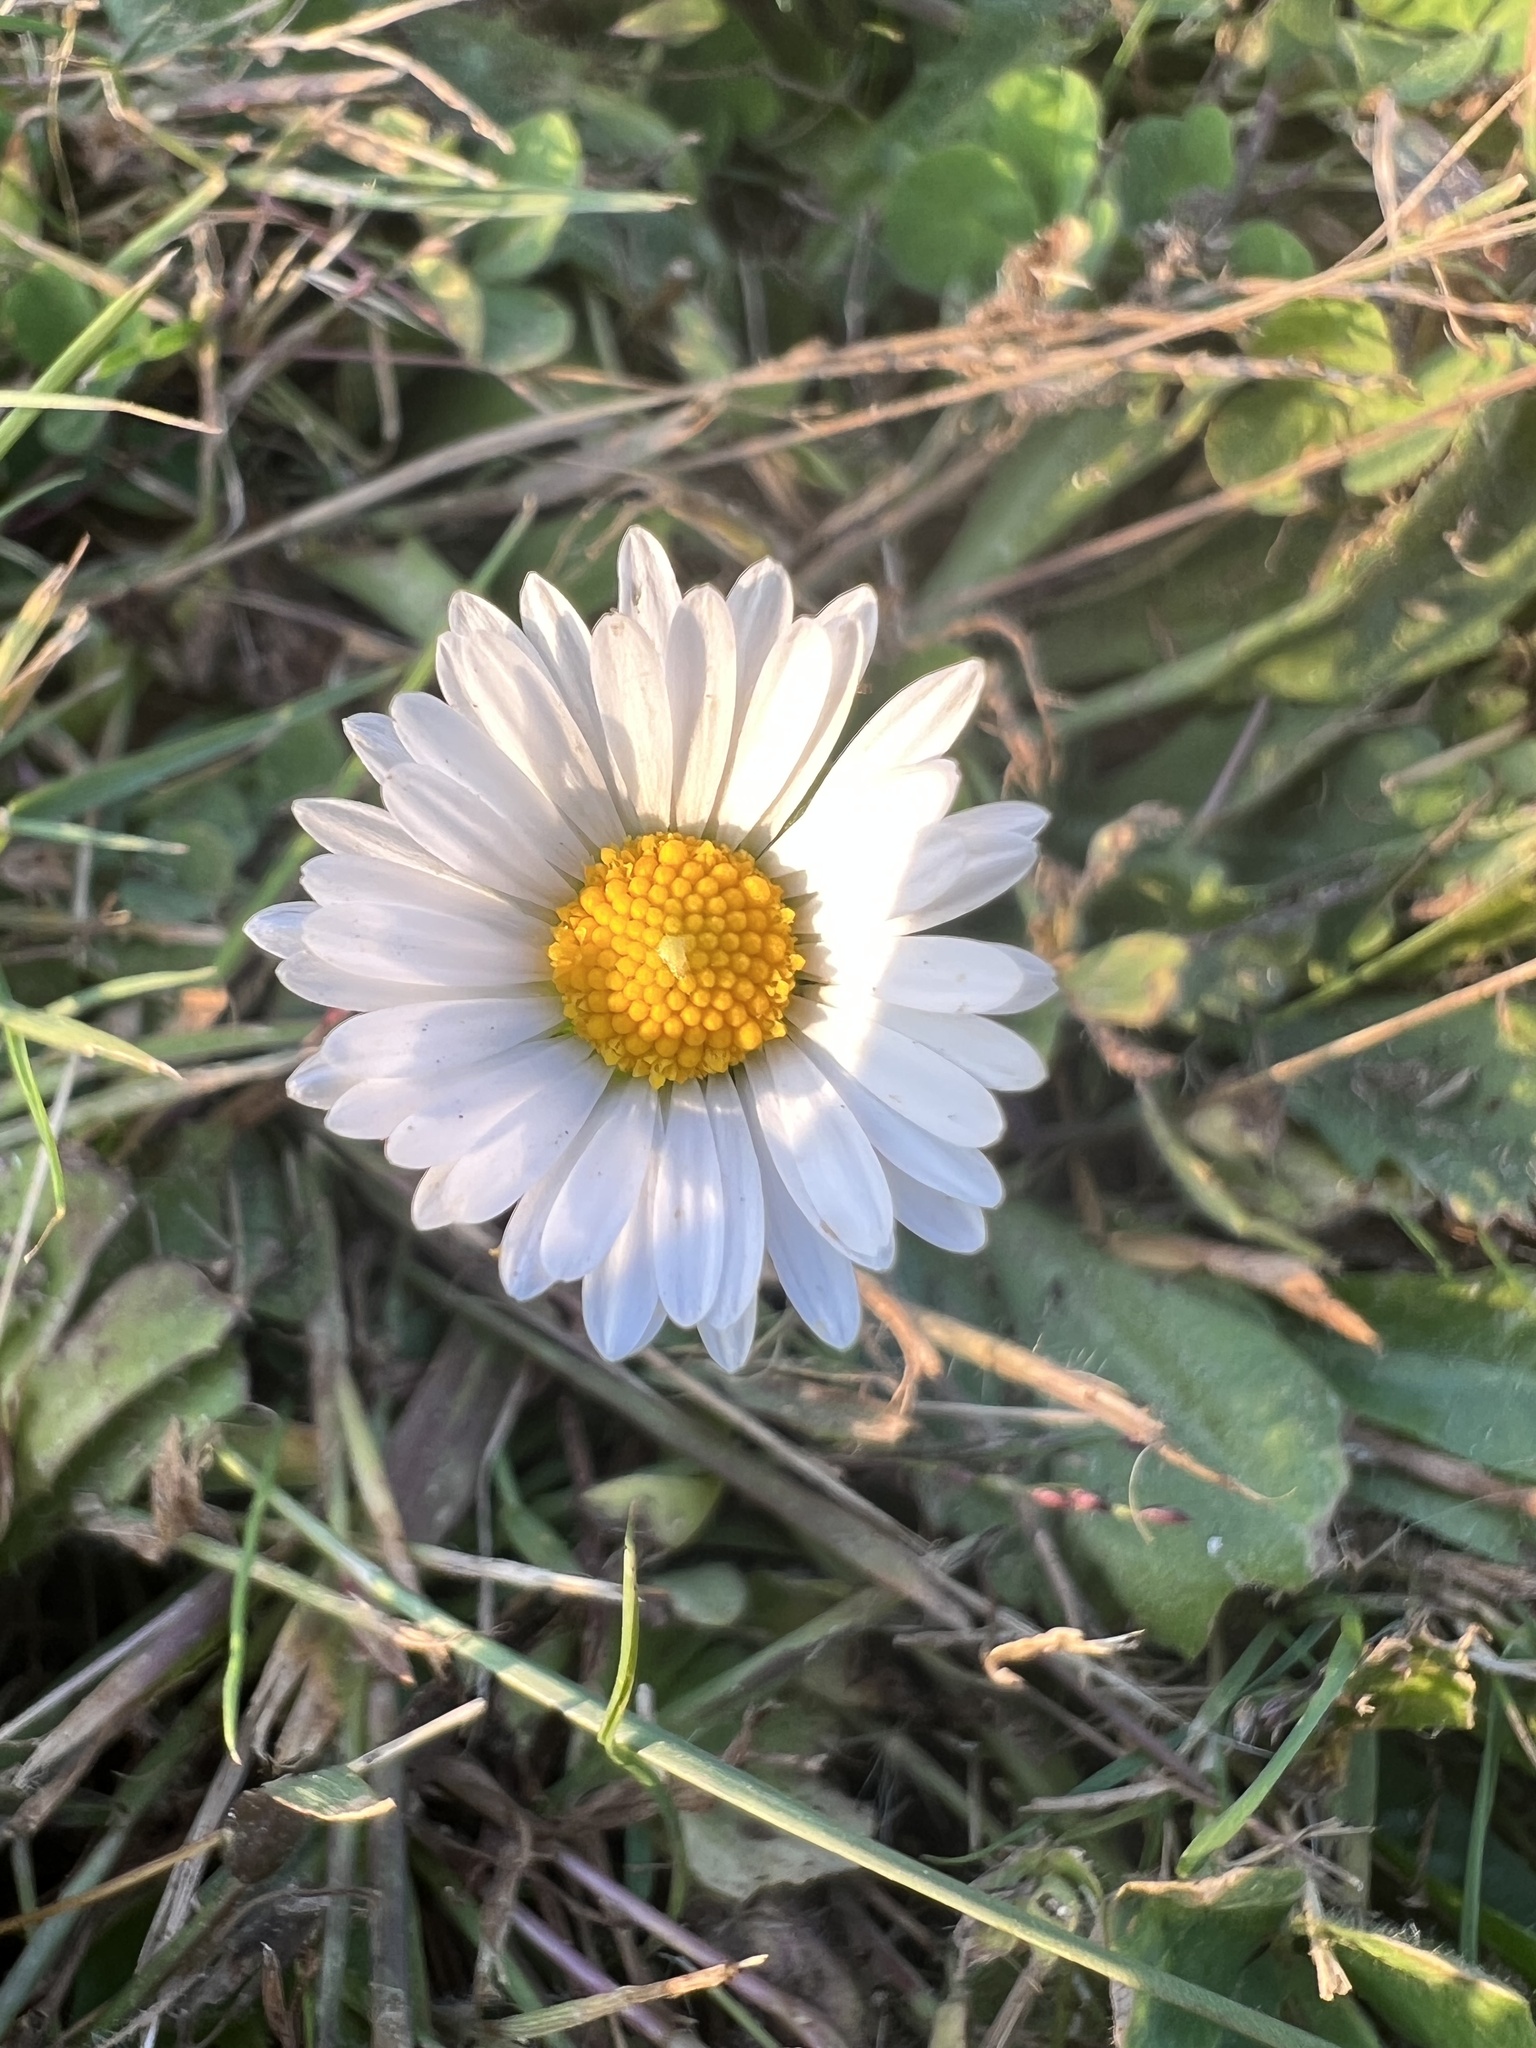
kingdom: Plantae
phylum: Tracheophyta
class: Magnoliopsida
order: Asterales
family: Asteraceae
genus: Bellis
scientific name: Bellis perennis
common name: Lawndaisy
